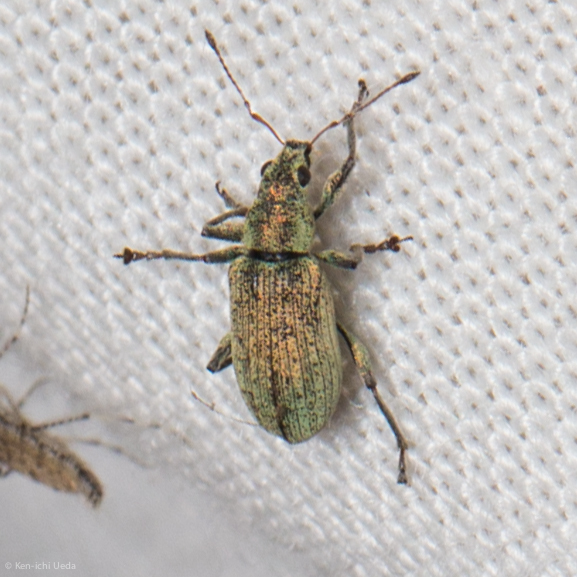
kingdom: Animalia
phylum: Arthropoda
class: Insecta
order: Coleoptera
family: Curculionidae
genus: Polydrusus
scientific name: Polydrusus cervinus
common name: Weevil
